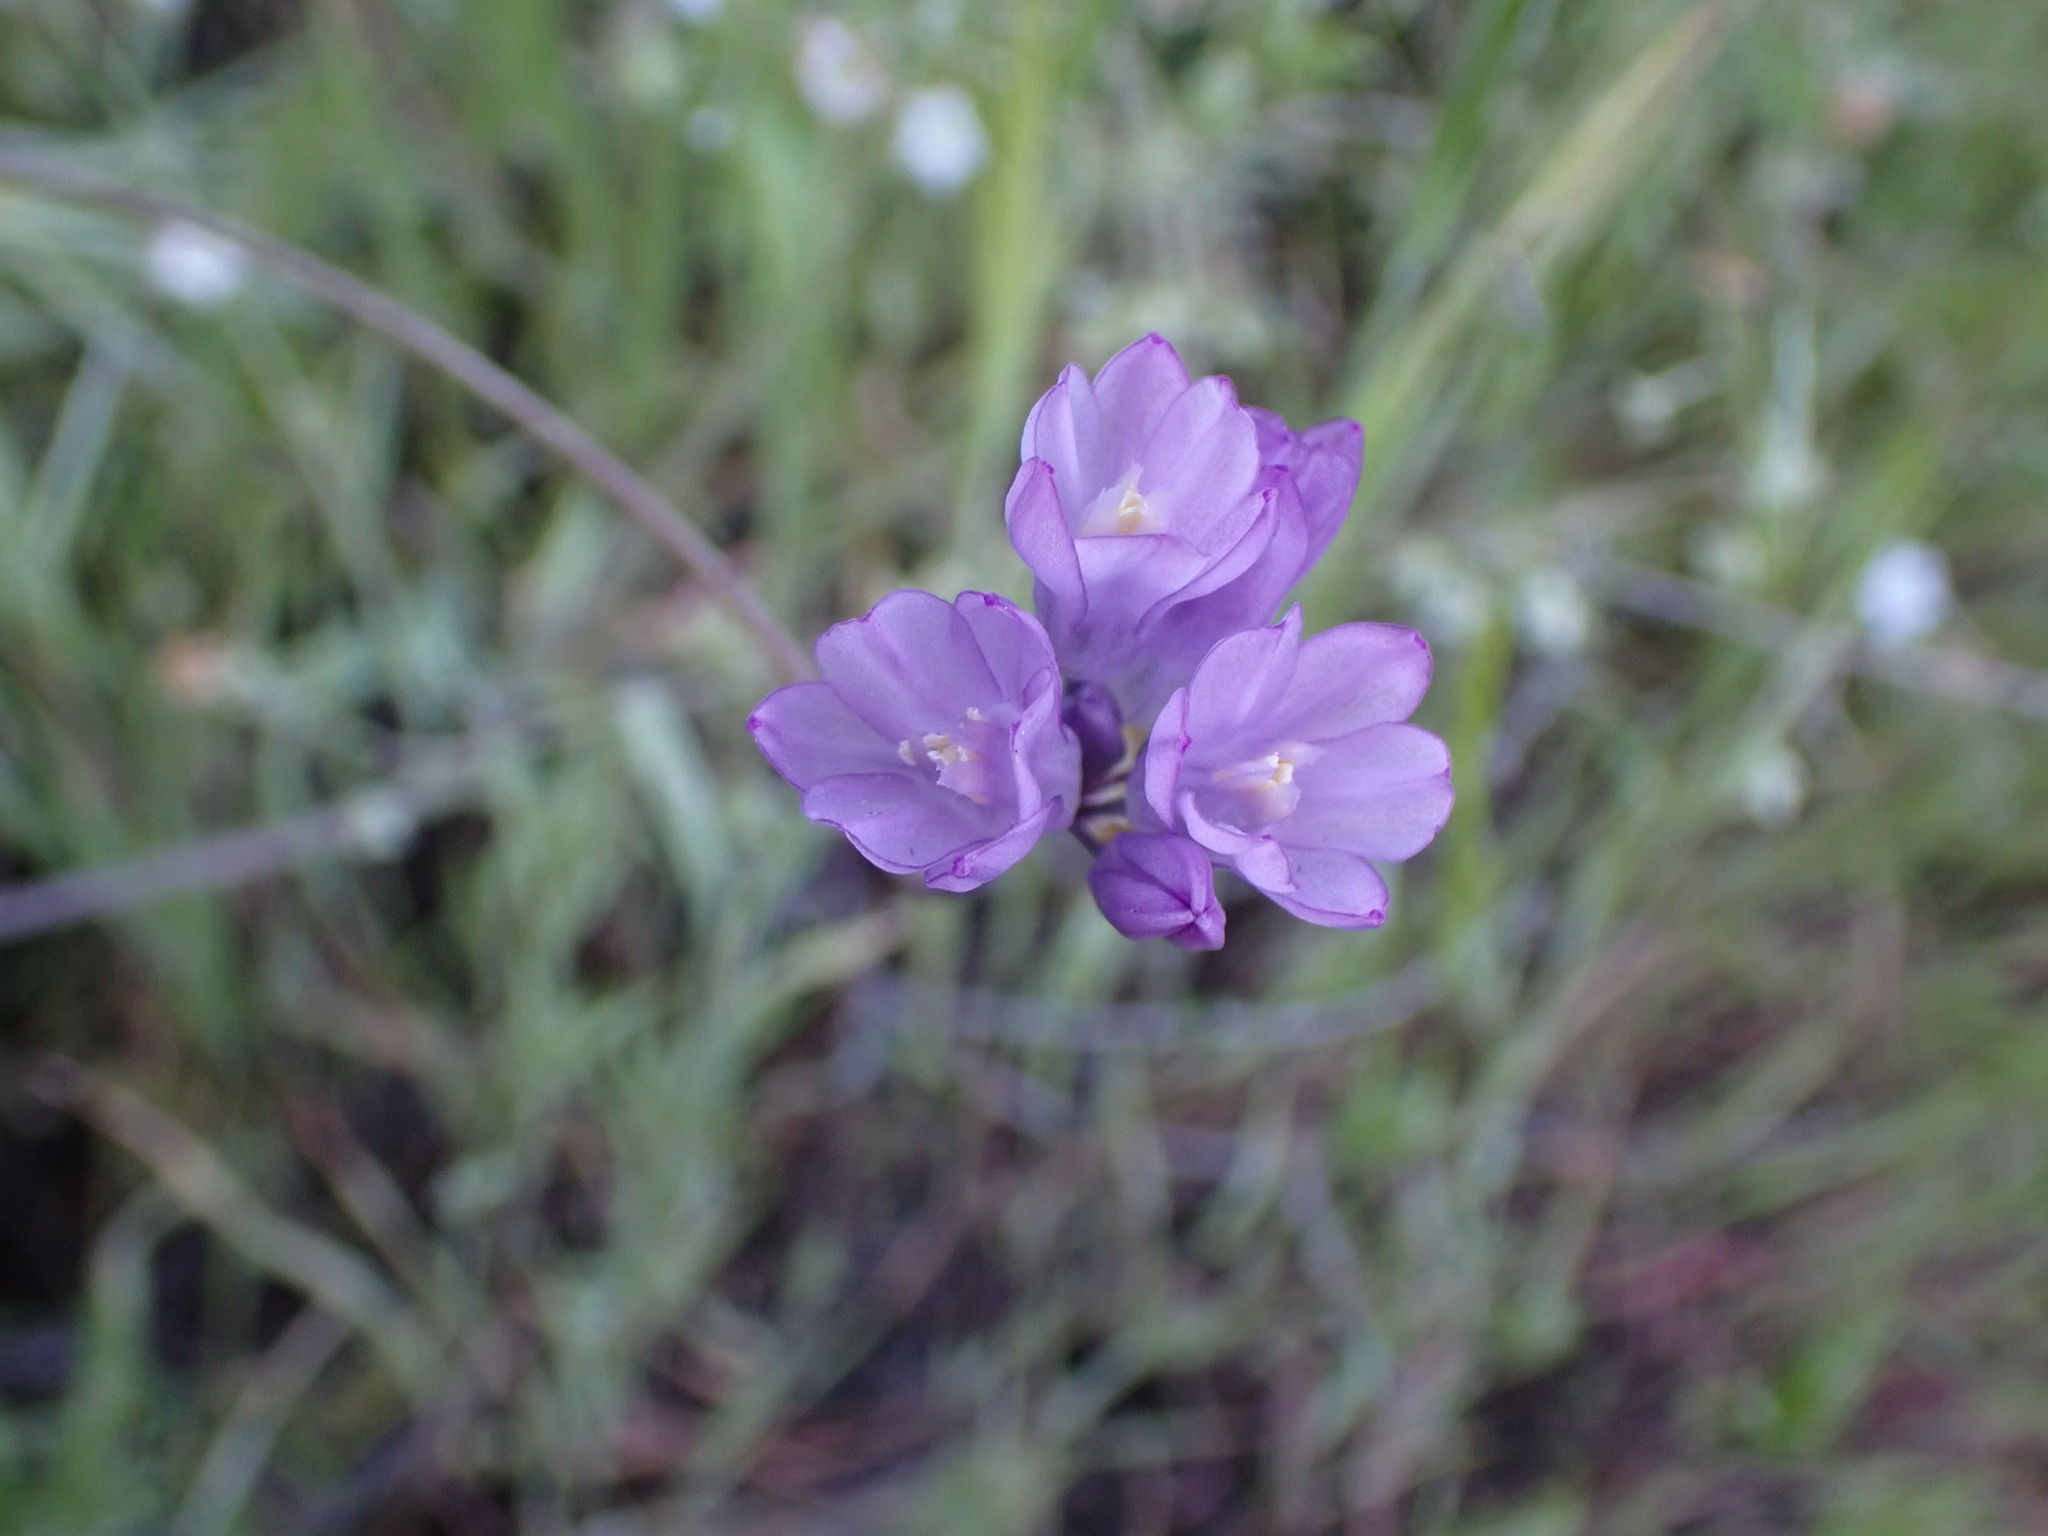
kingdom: Plantae
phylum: Tracheophyta
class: Liliopsida
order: Asparagales
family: Asparagaceae
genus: Dipterostemon
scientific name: Dipterostemon capitatus
